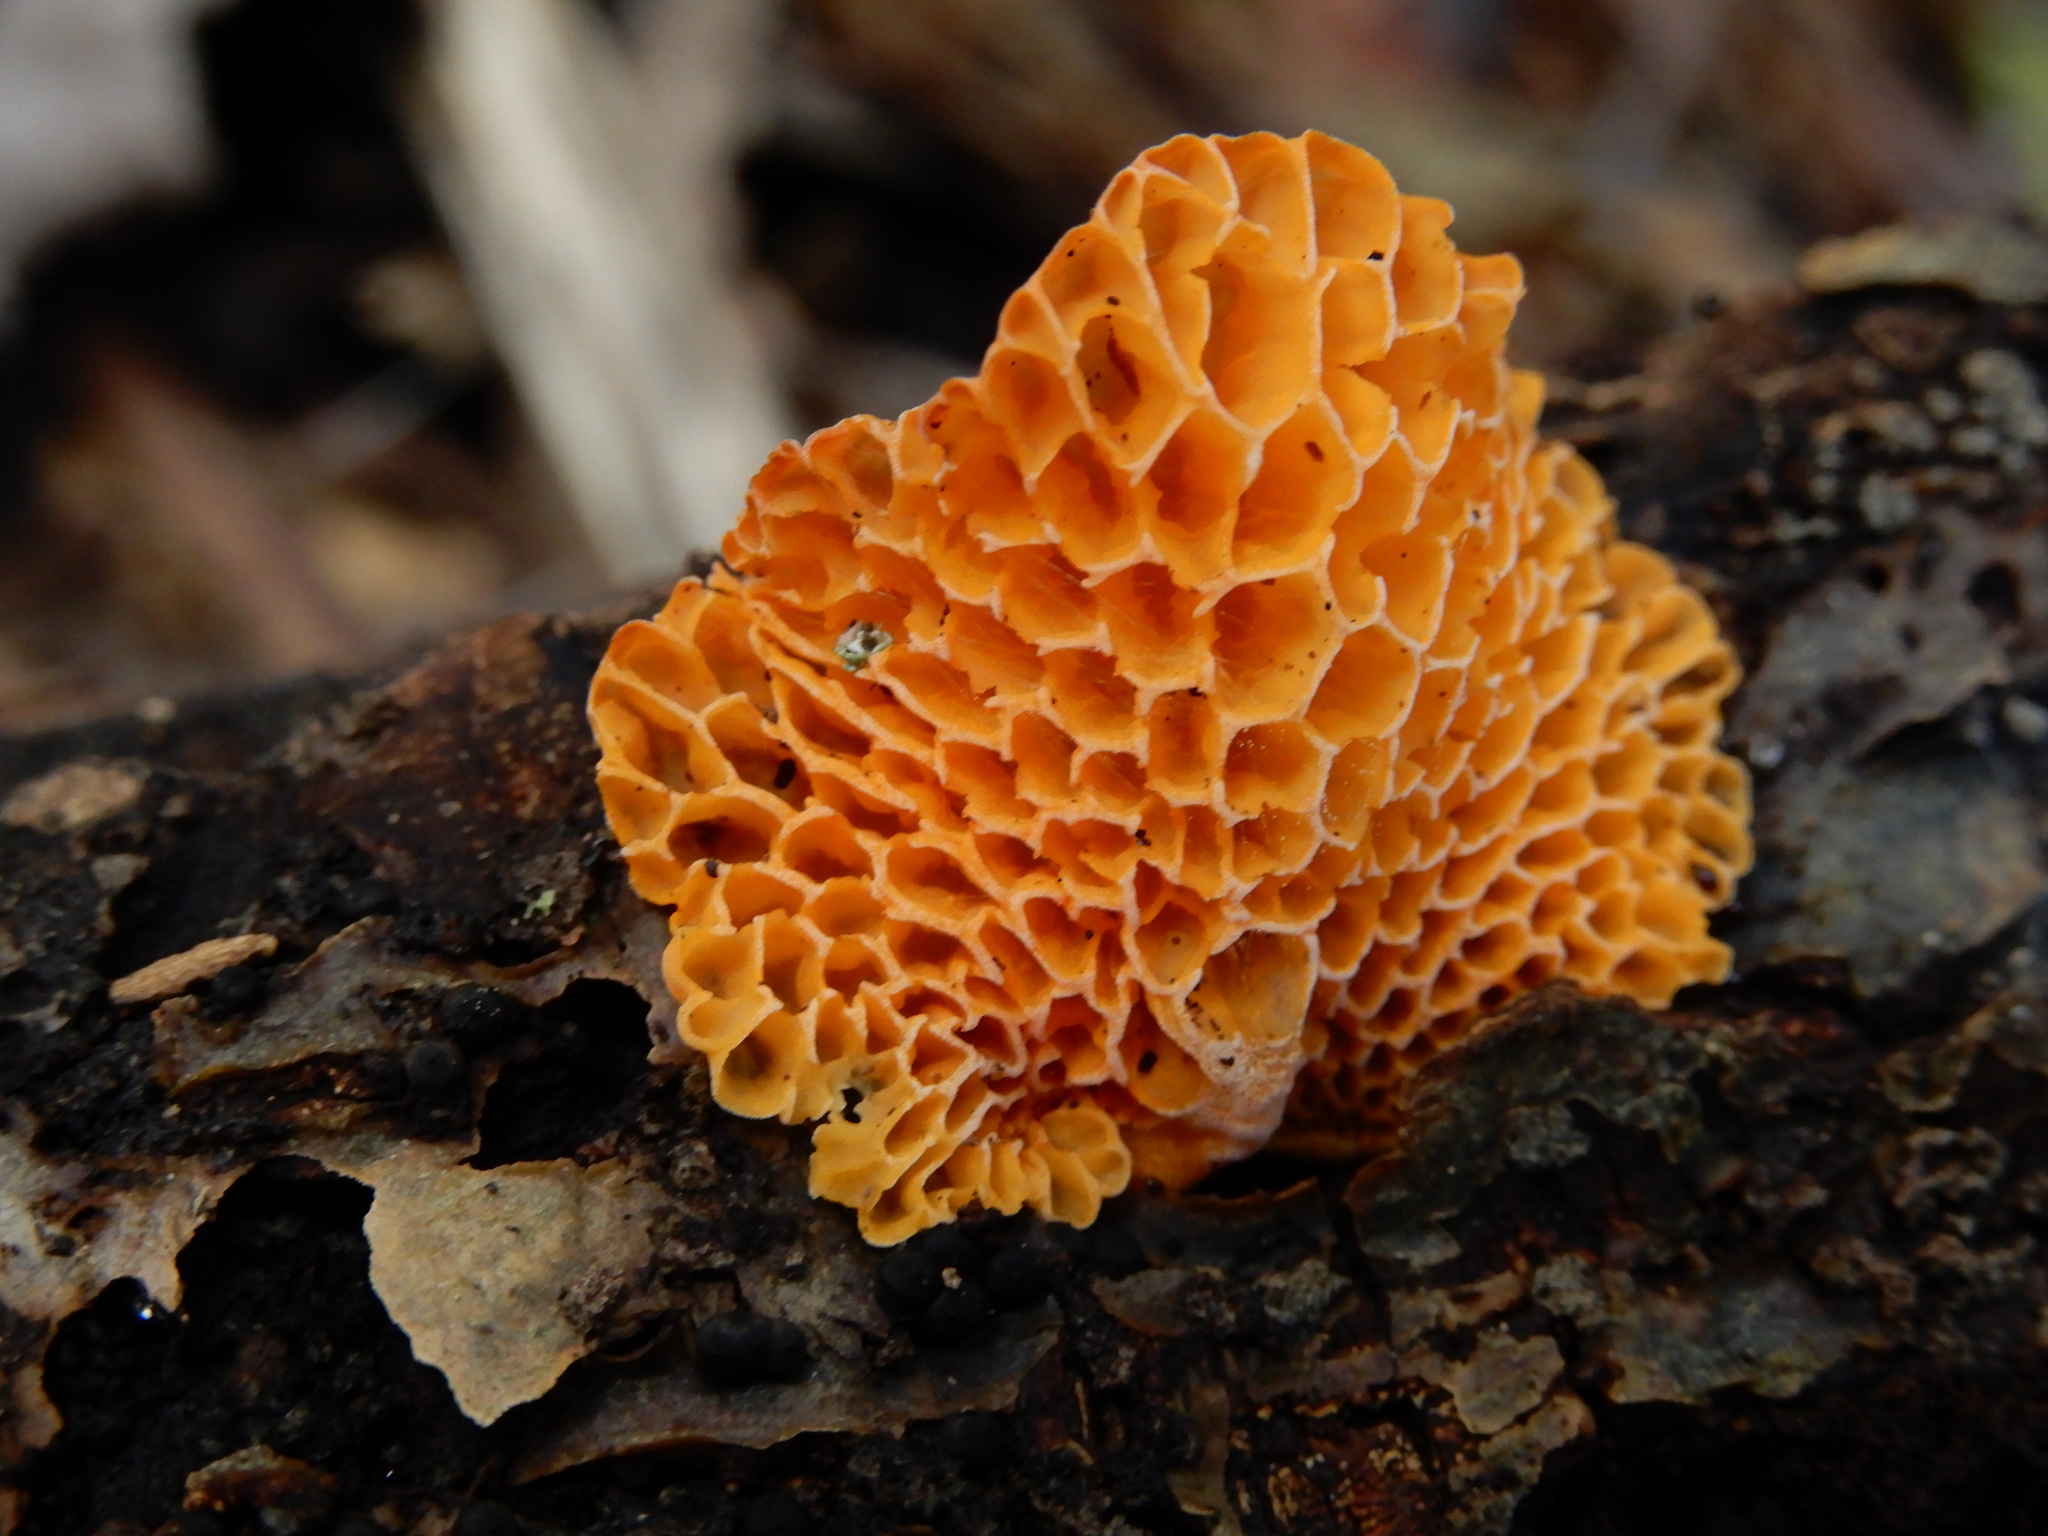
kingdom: Fungi
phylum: Basidiomycota
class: Agaricomycetes
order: Agaricales
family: Mycenaceae
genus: Favolaschia
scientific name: Favolaschia claudopus
